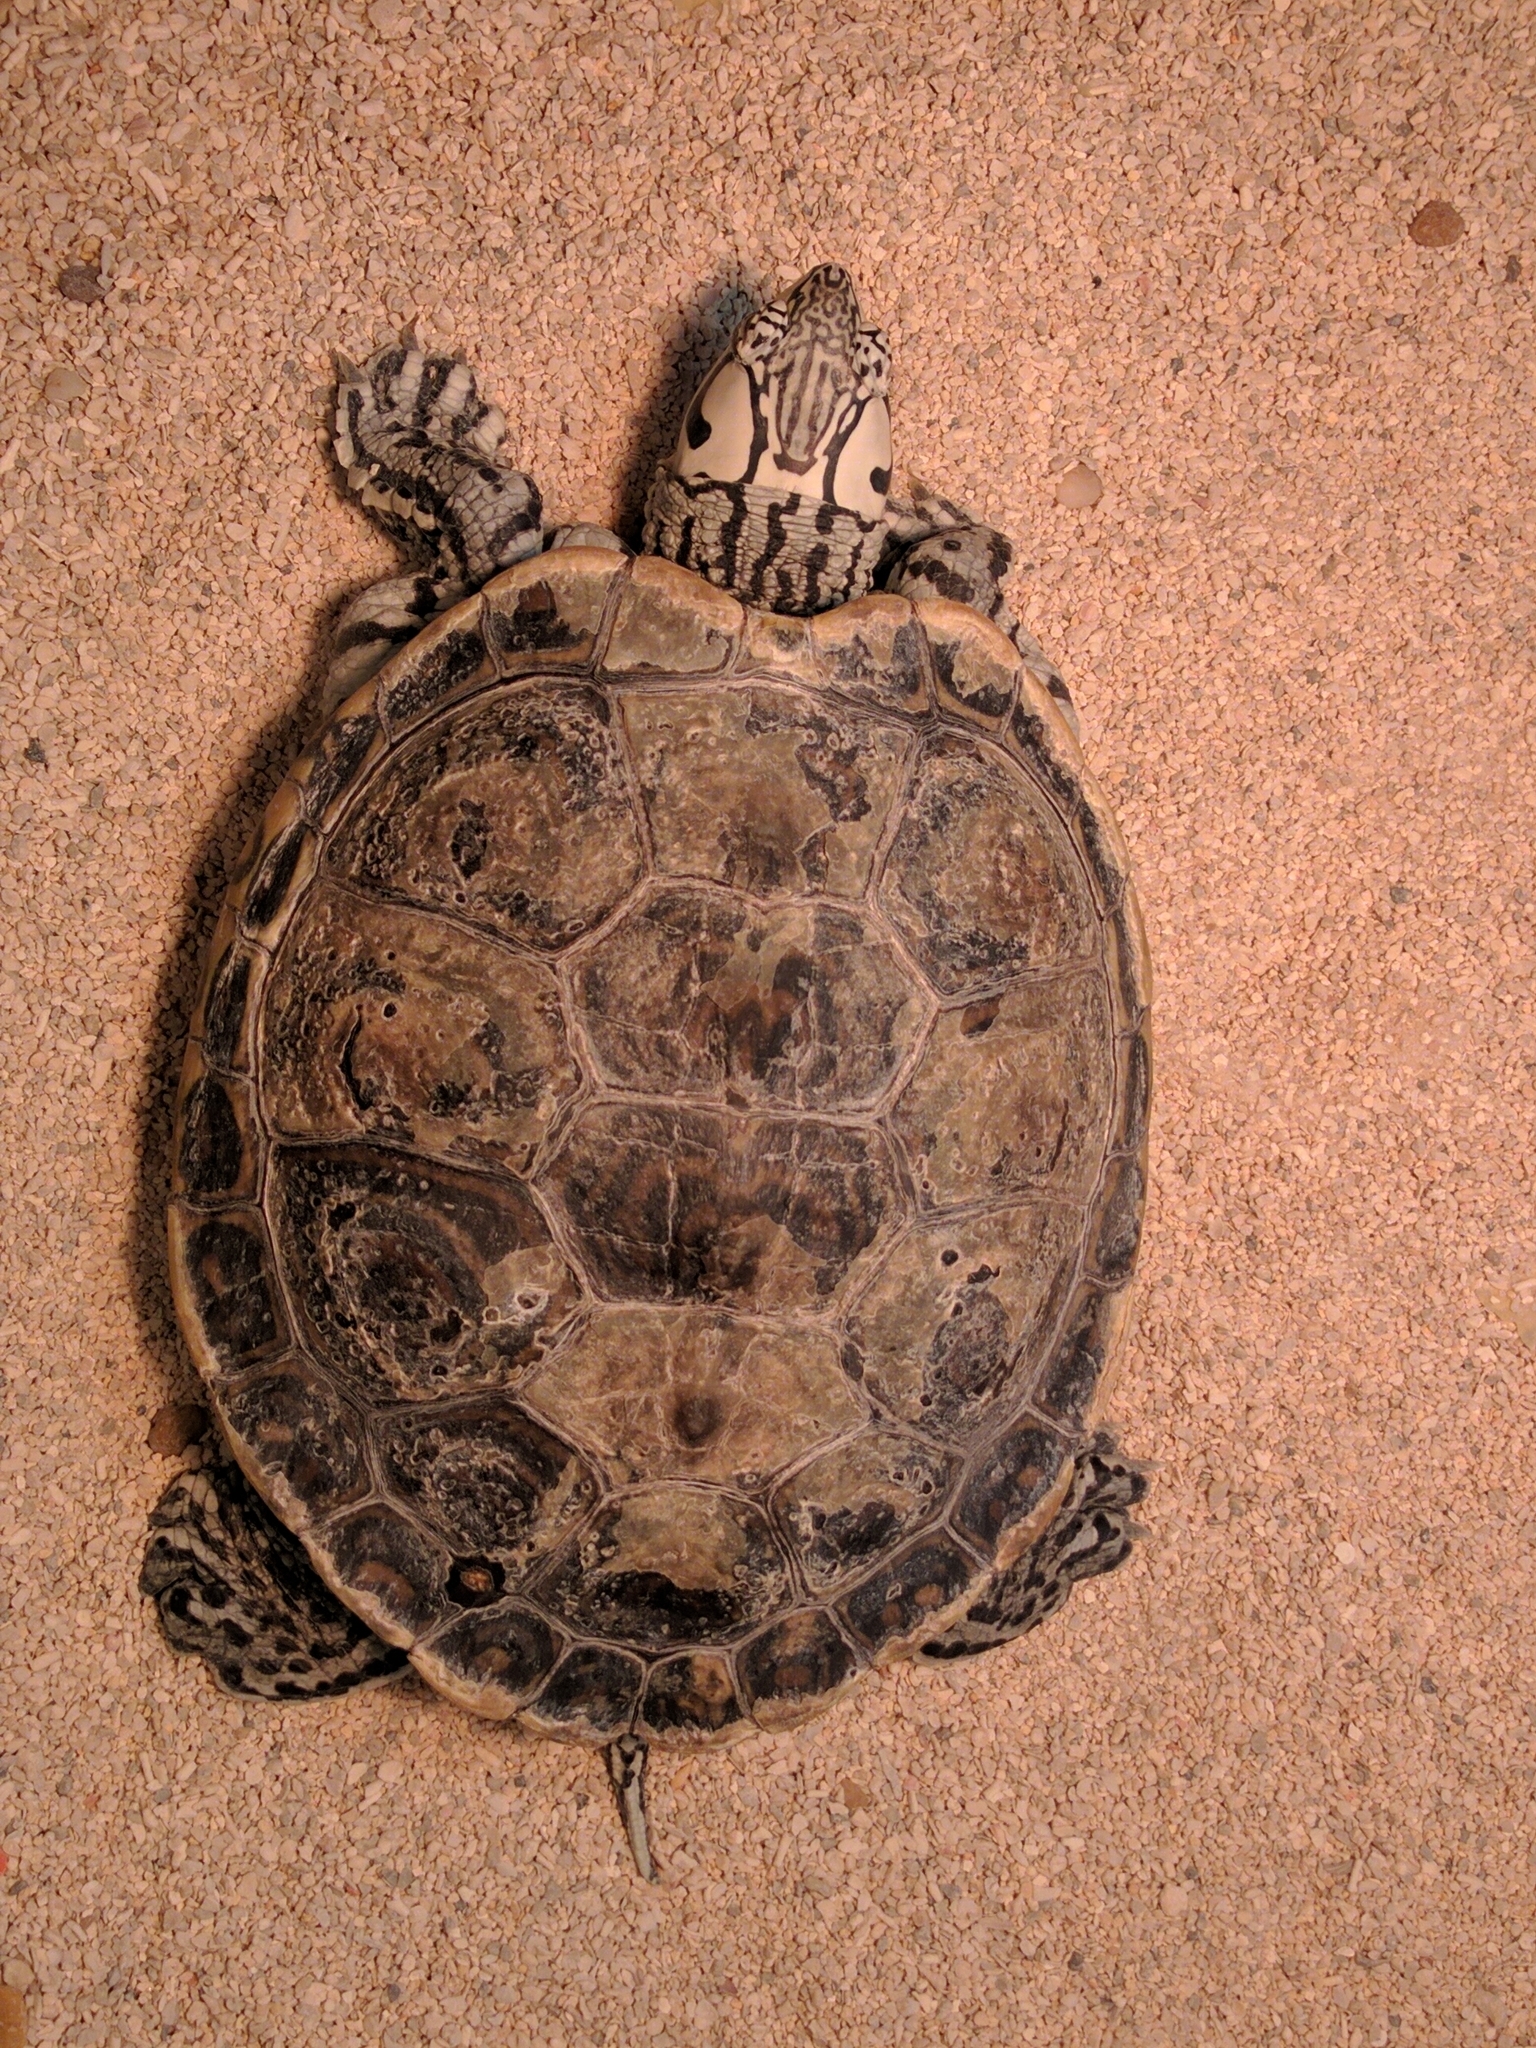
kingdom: Animalia
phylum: Chordata
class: Testudines
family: Emydidae
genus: Malaclemys
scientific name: Malaclemys terrapin
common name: Diamondback terrapin
